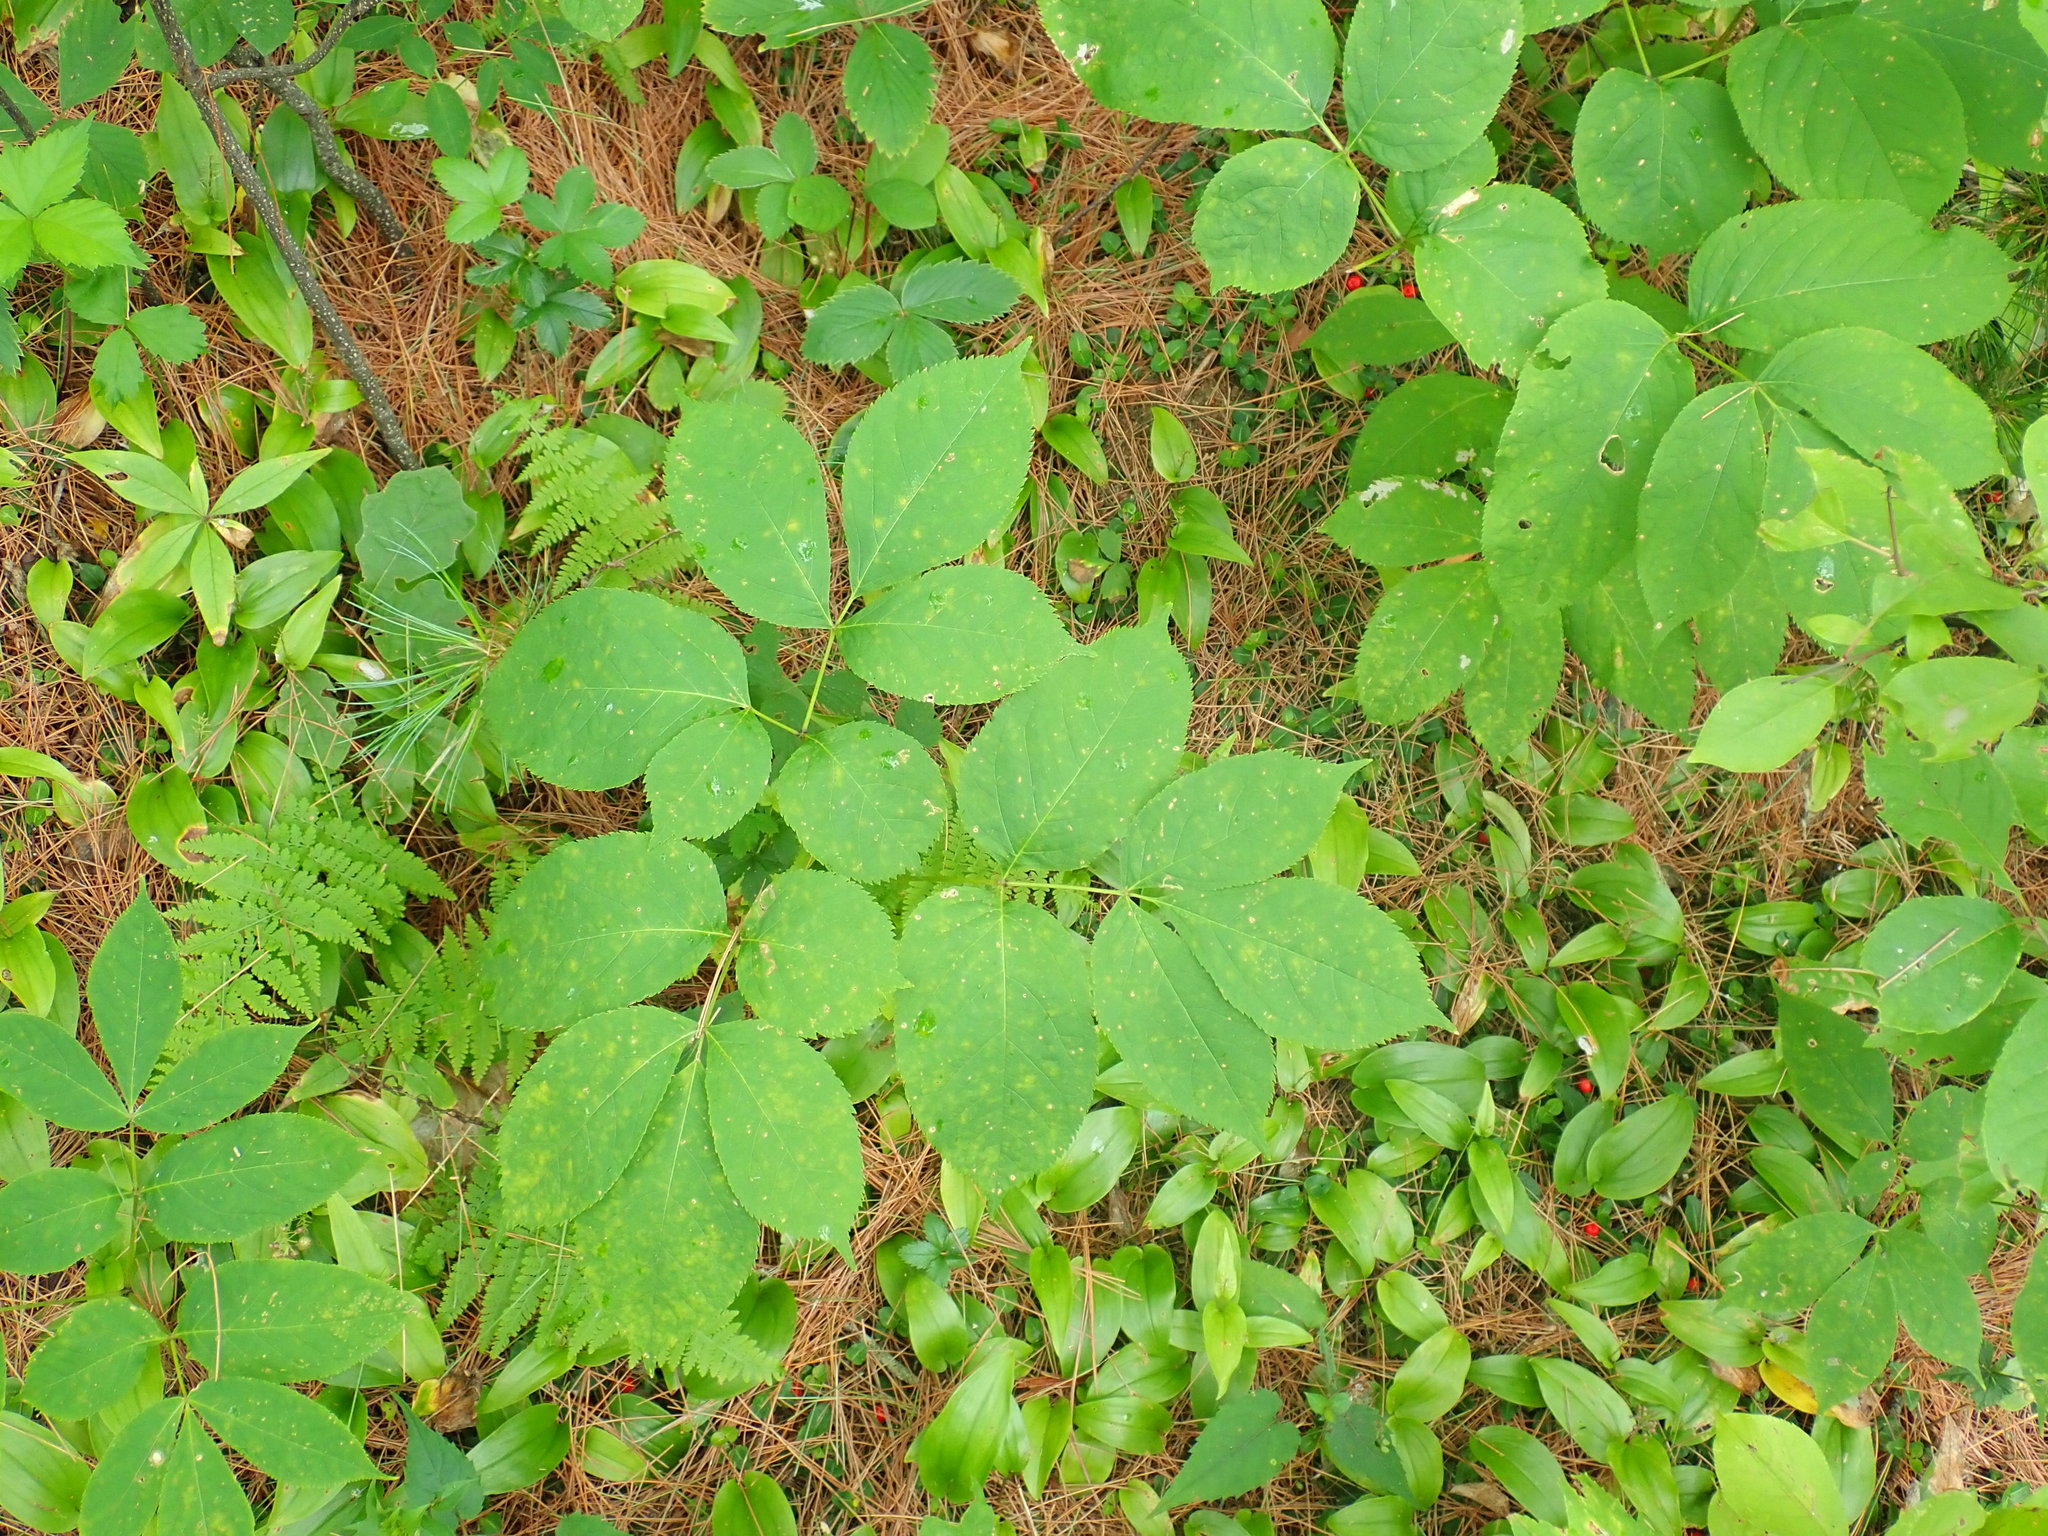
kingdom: Plantae
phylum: Tracheophyta
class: Magnoliopsida
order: Apiales
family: Araliaceae
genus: Aralia
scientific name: Aralia nudicaulis
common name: Wild sarsaparilla
